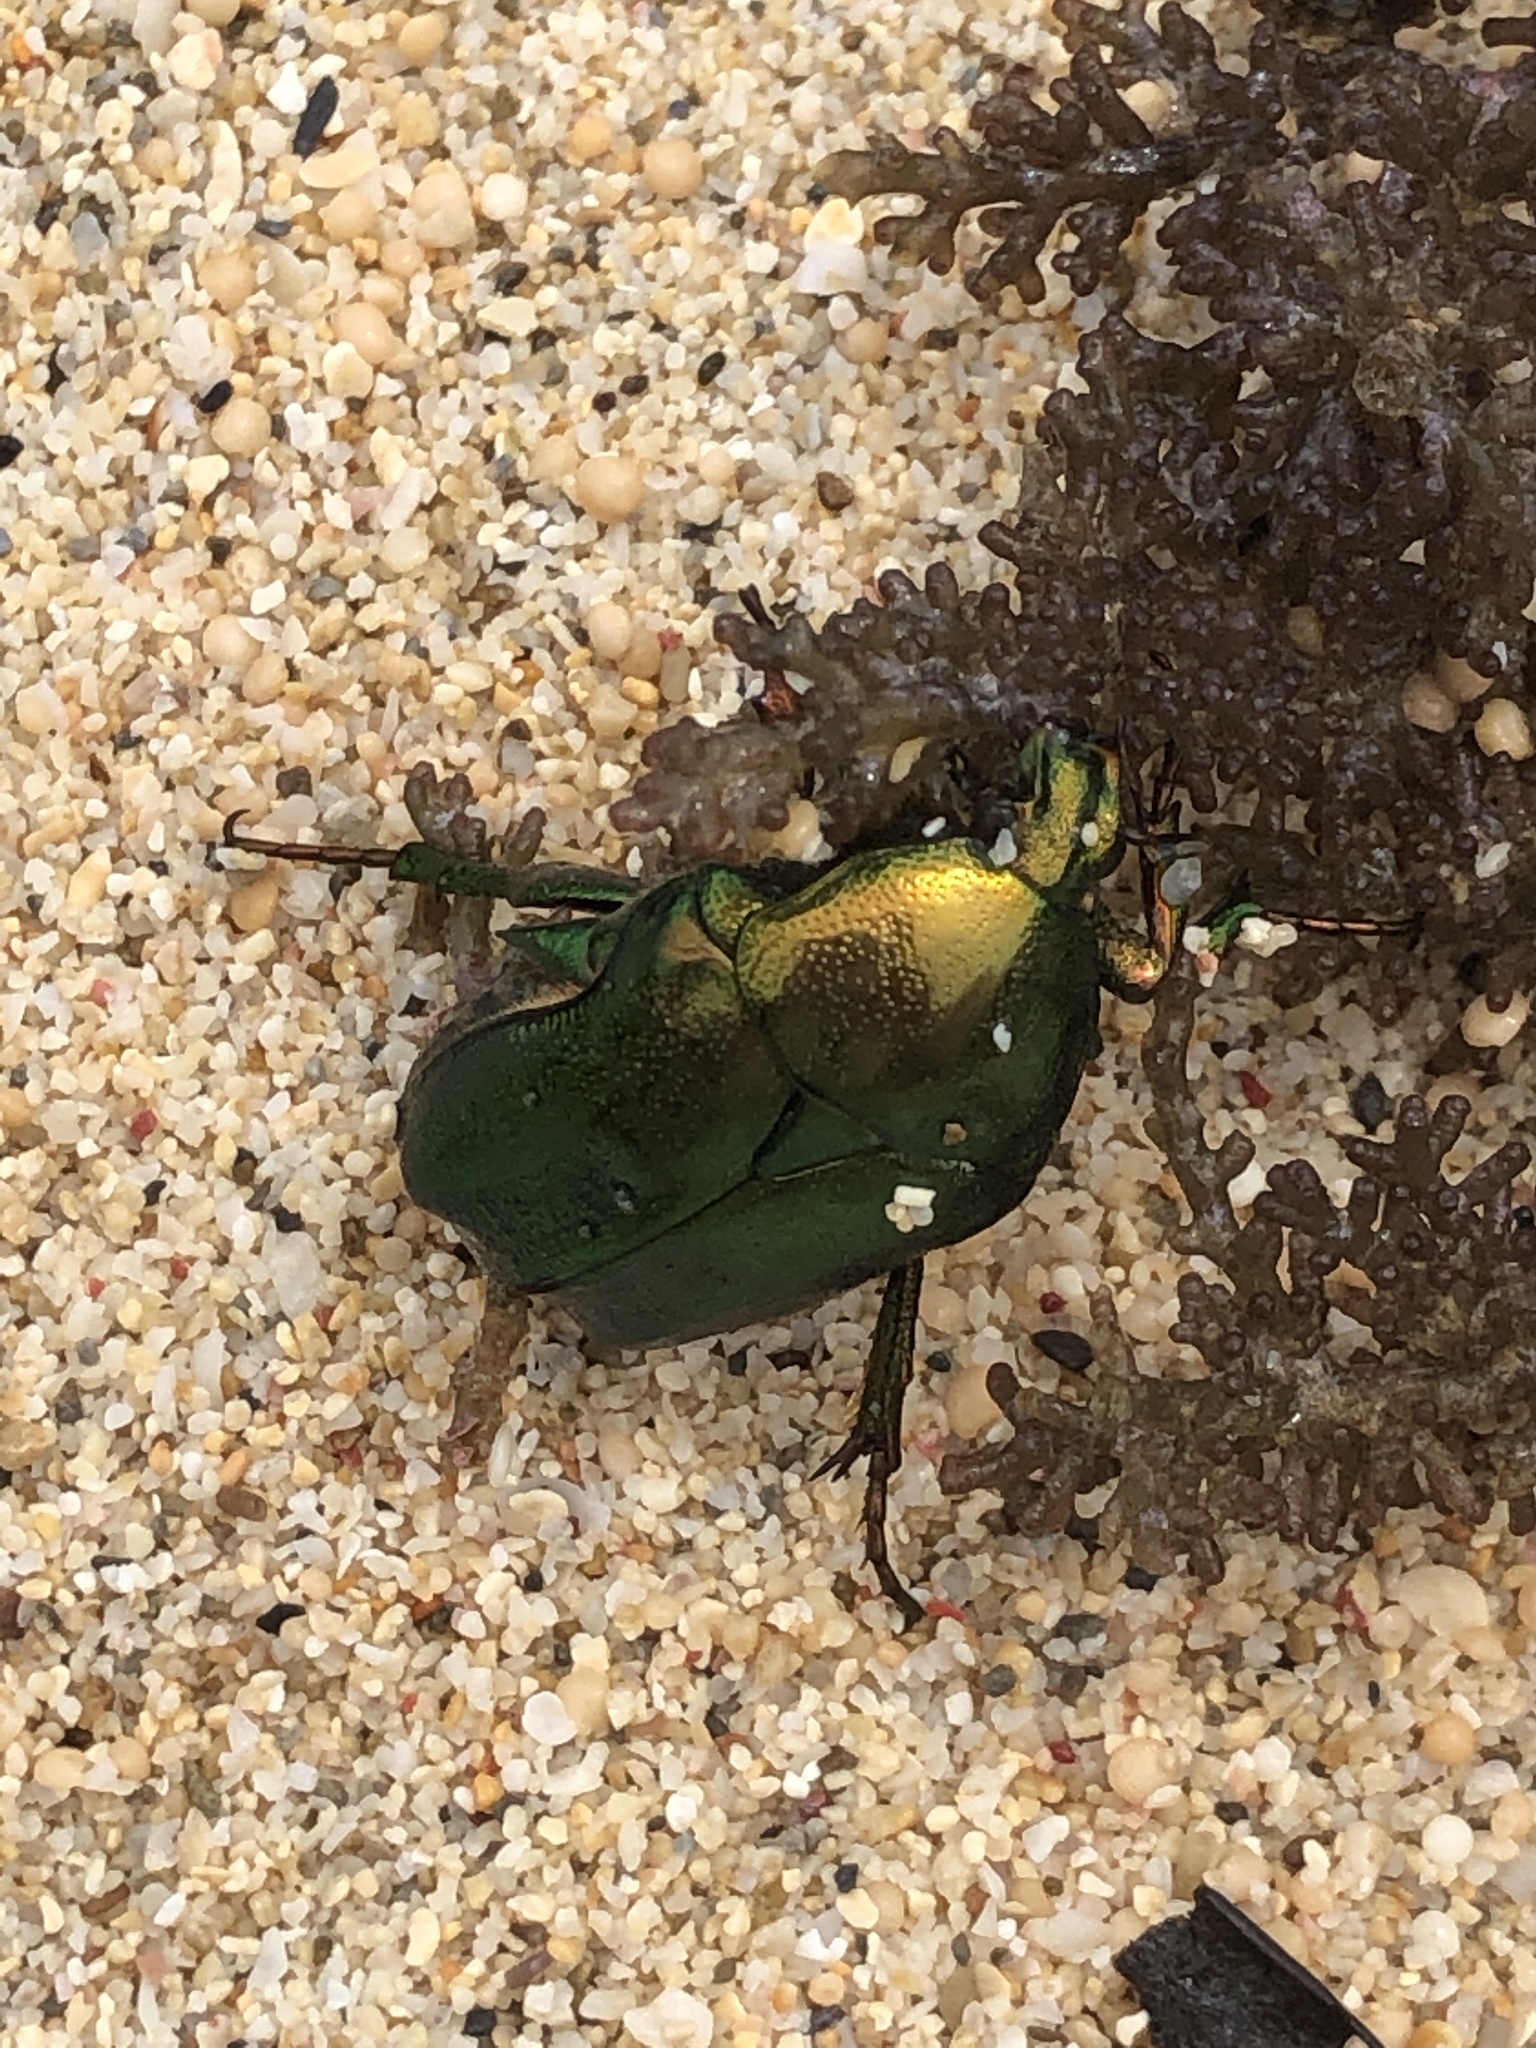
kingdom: Animalia
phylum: Arthropoda
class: Insecta
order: Coleoptera
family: Scarabaeidae
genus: Protaetia
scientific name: Protaetia pryeri
